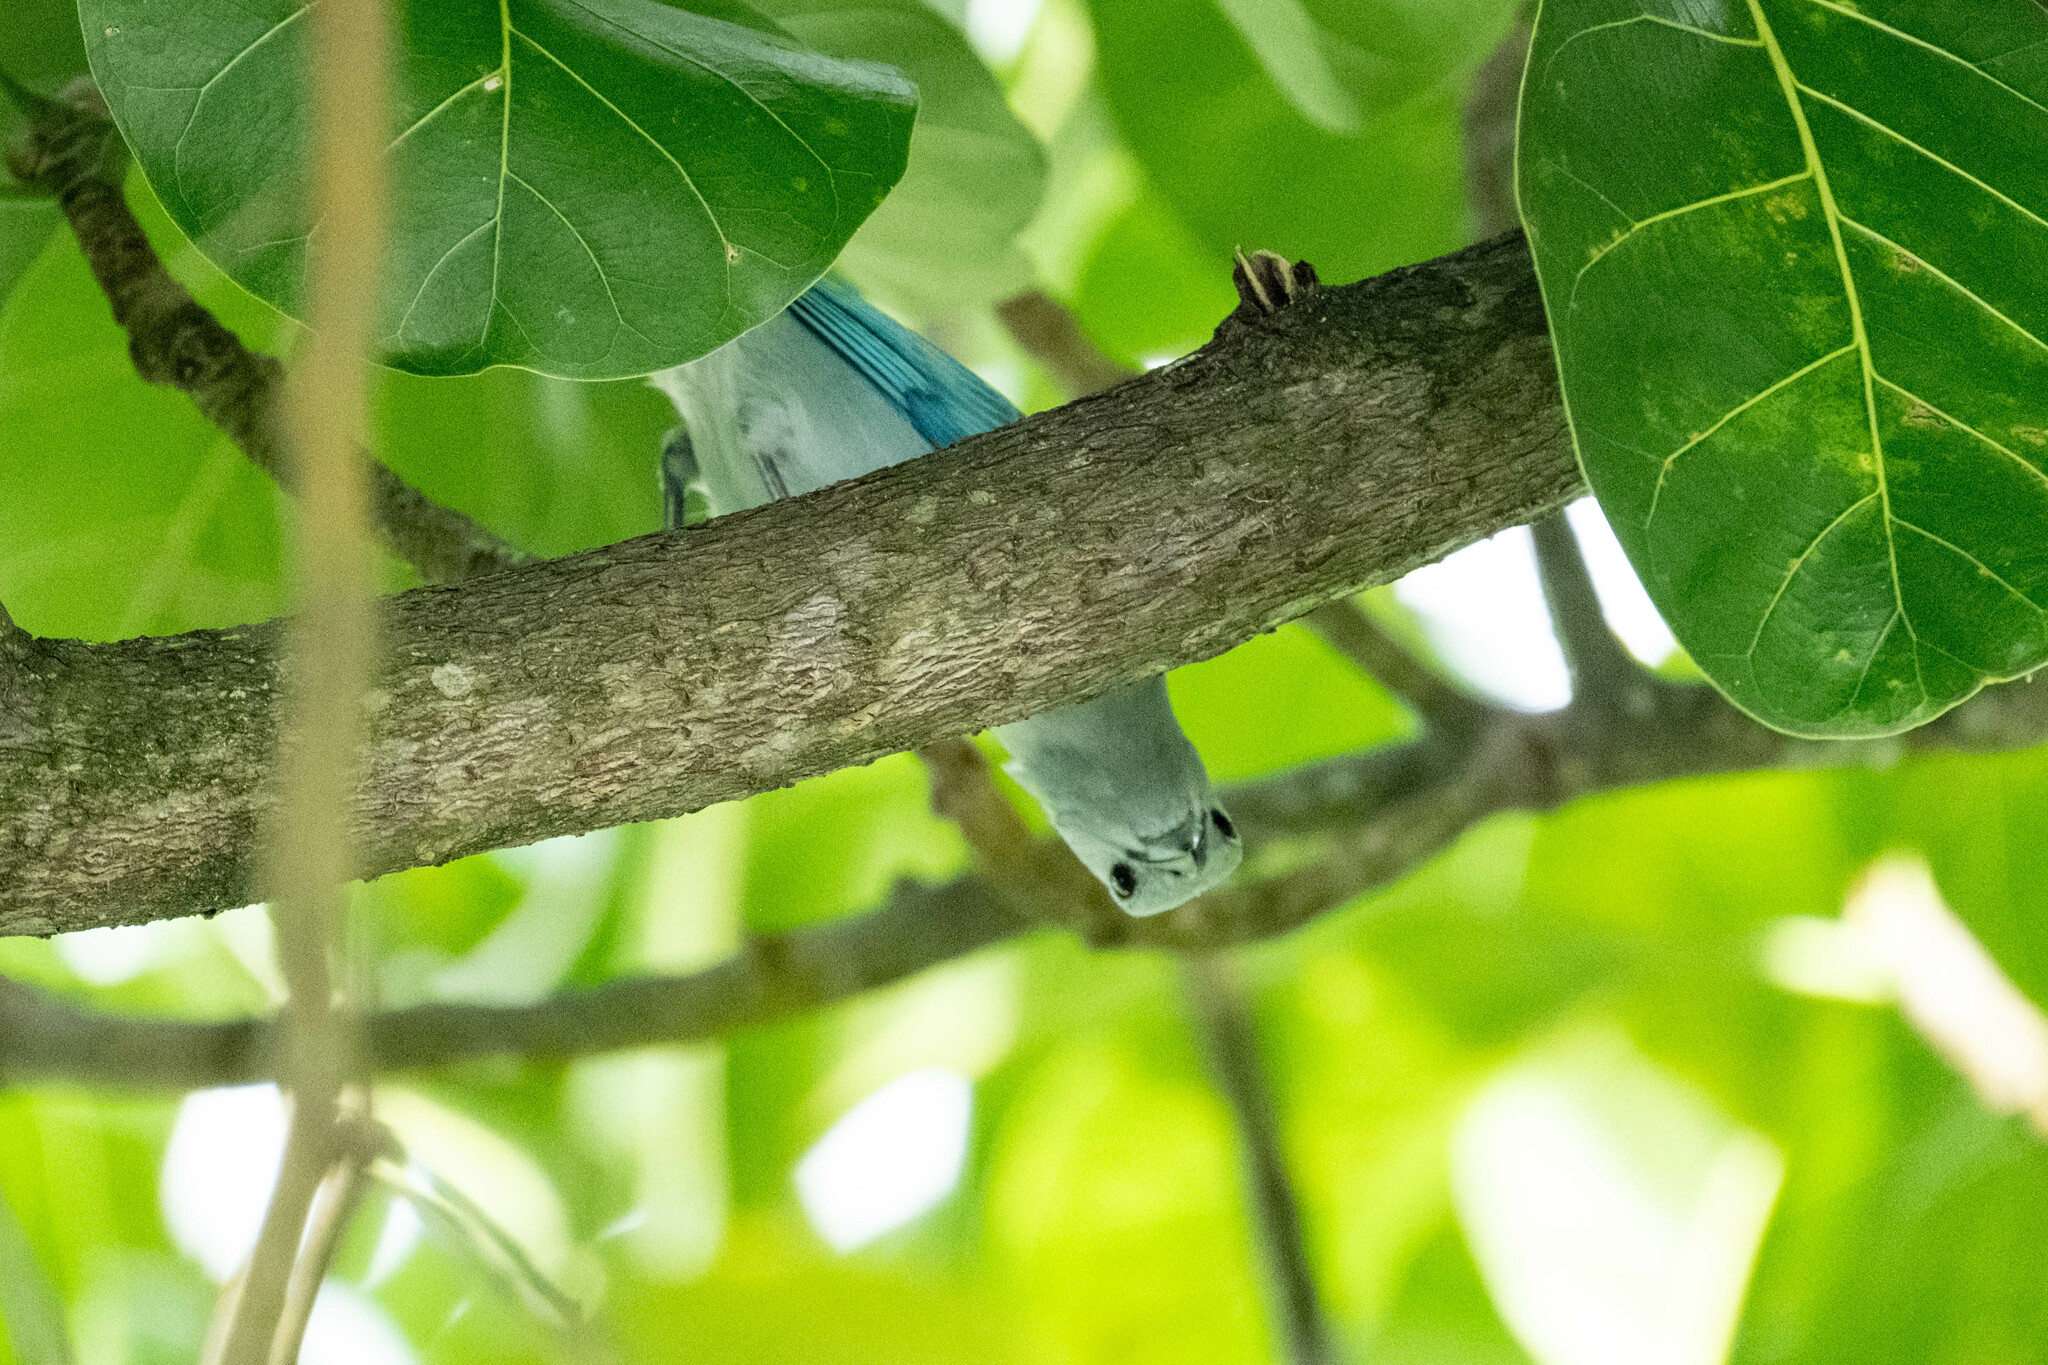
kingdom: Animalia
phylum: Chordata
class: Aves
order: Passeriformes
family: Thraupidae
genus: Thraupis
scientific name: Thraupis episcopus
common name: Blue-grey tanager
